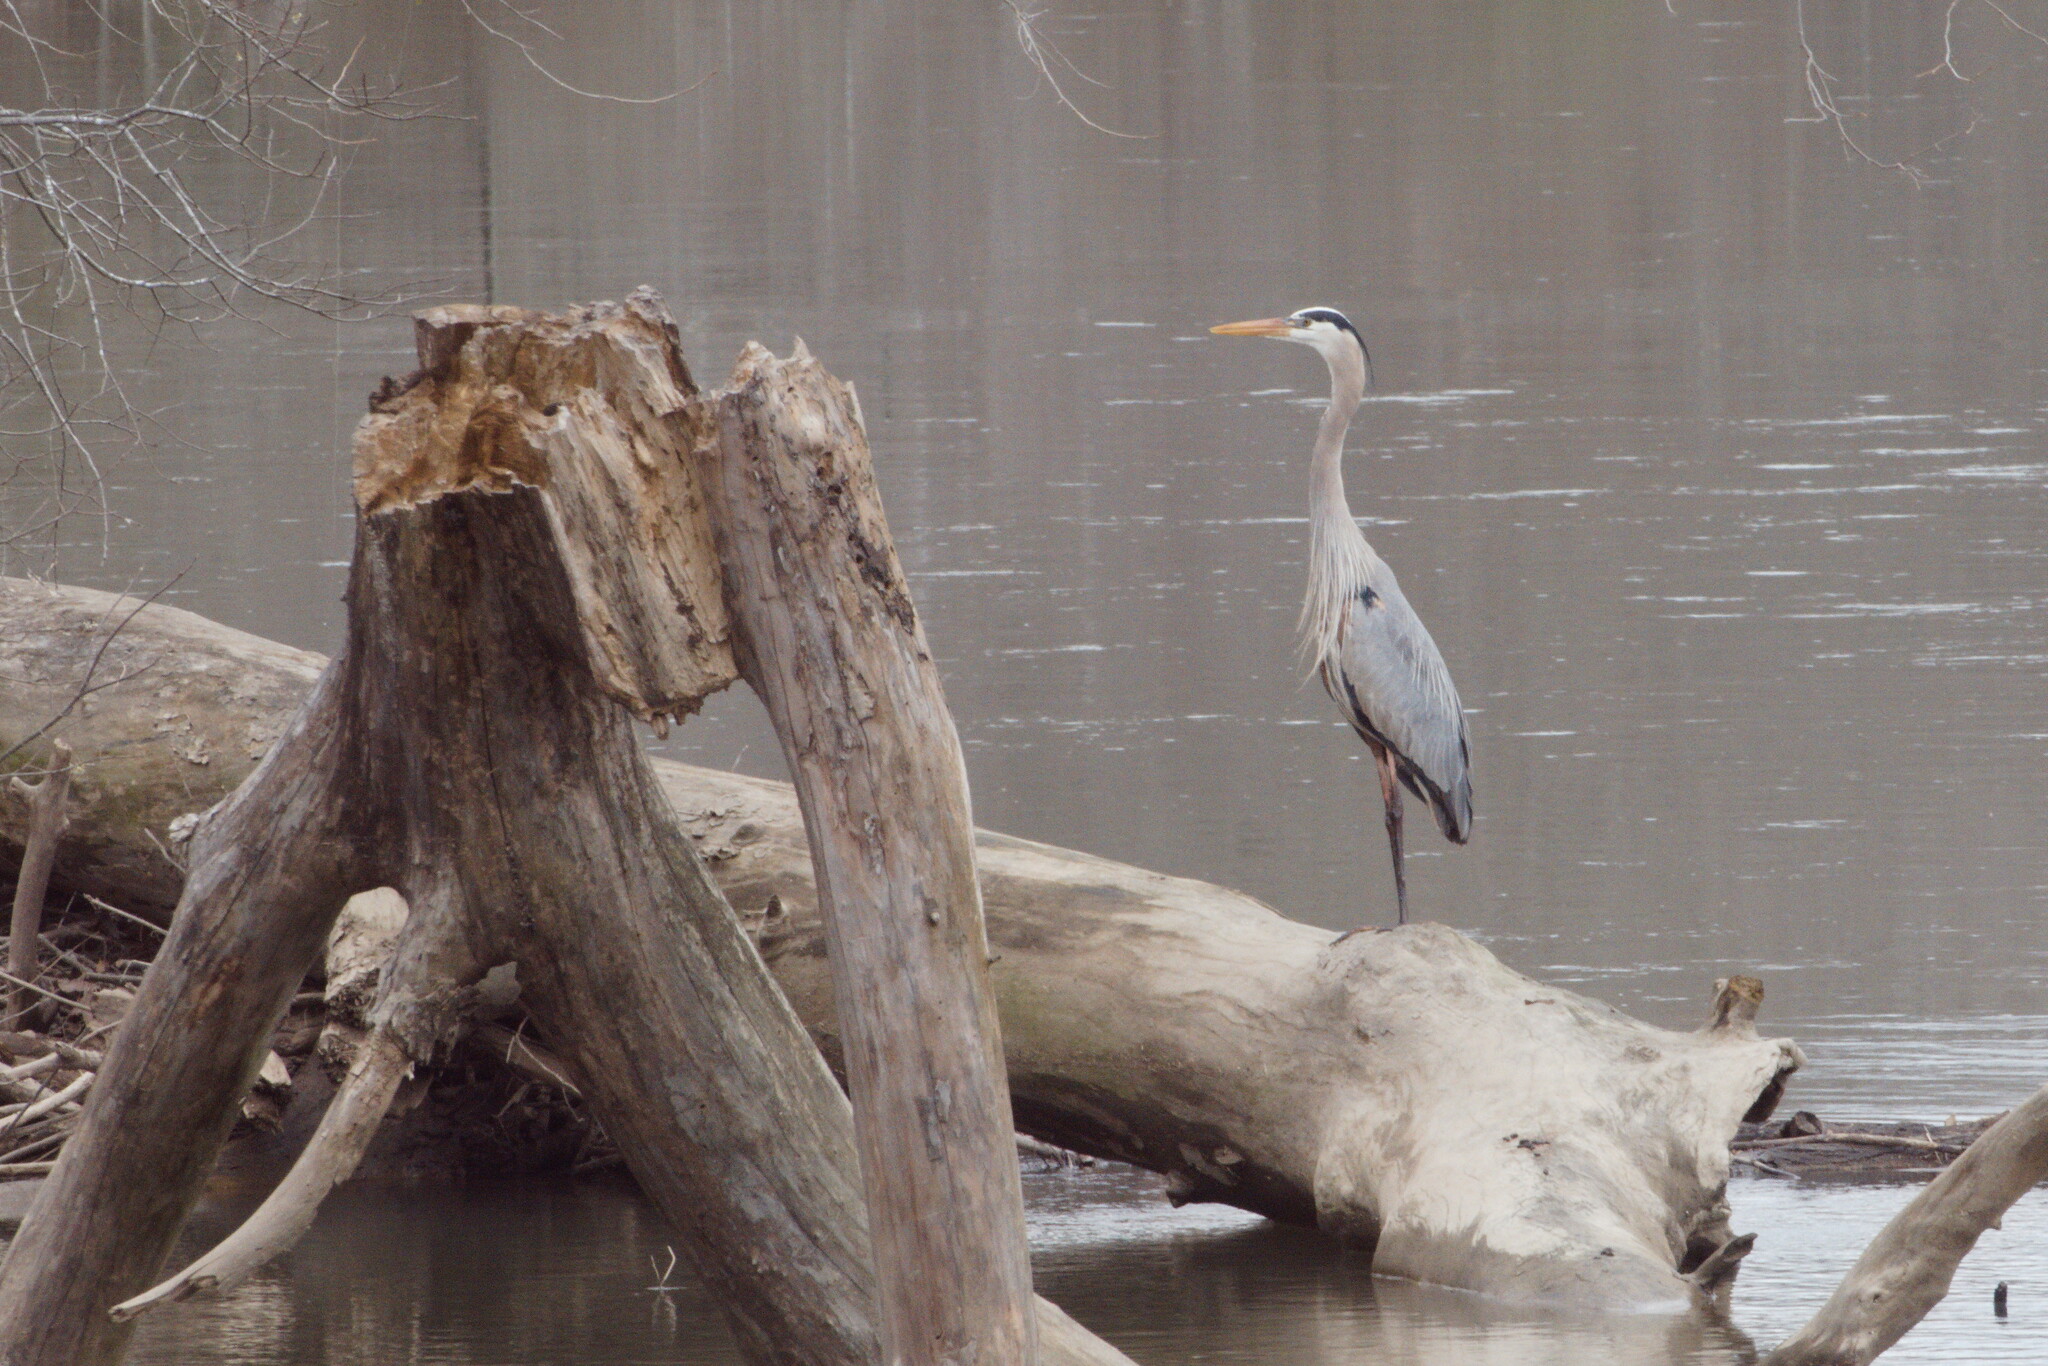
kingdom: Animalia
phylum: Chordata
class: Aves
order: Pelecaniformes
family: Ardeidae
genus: Ardea
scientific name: Ardea herodias
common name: Great blue heron
